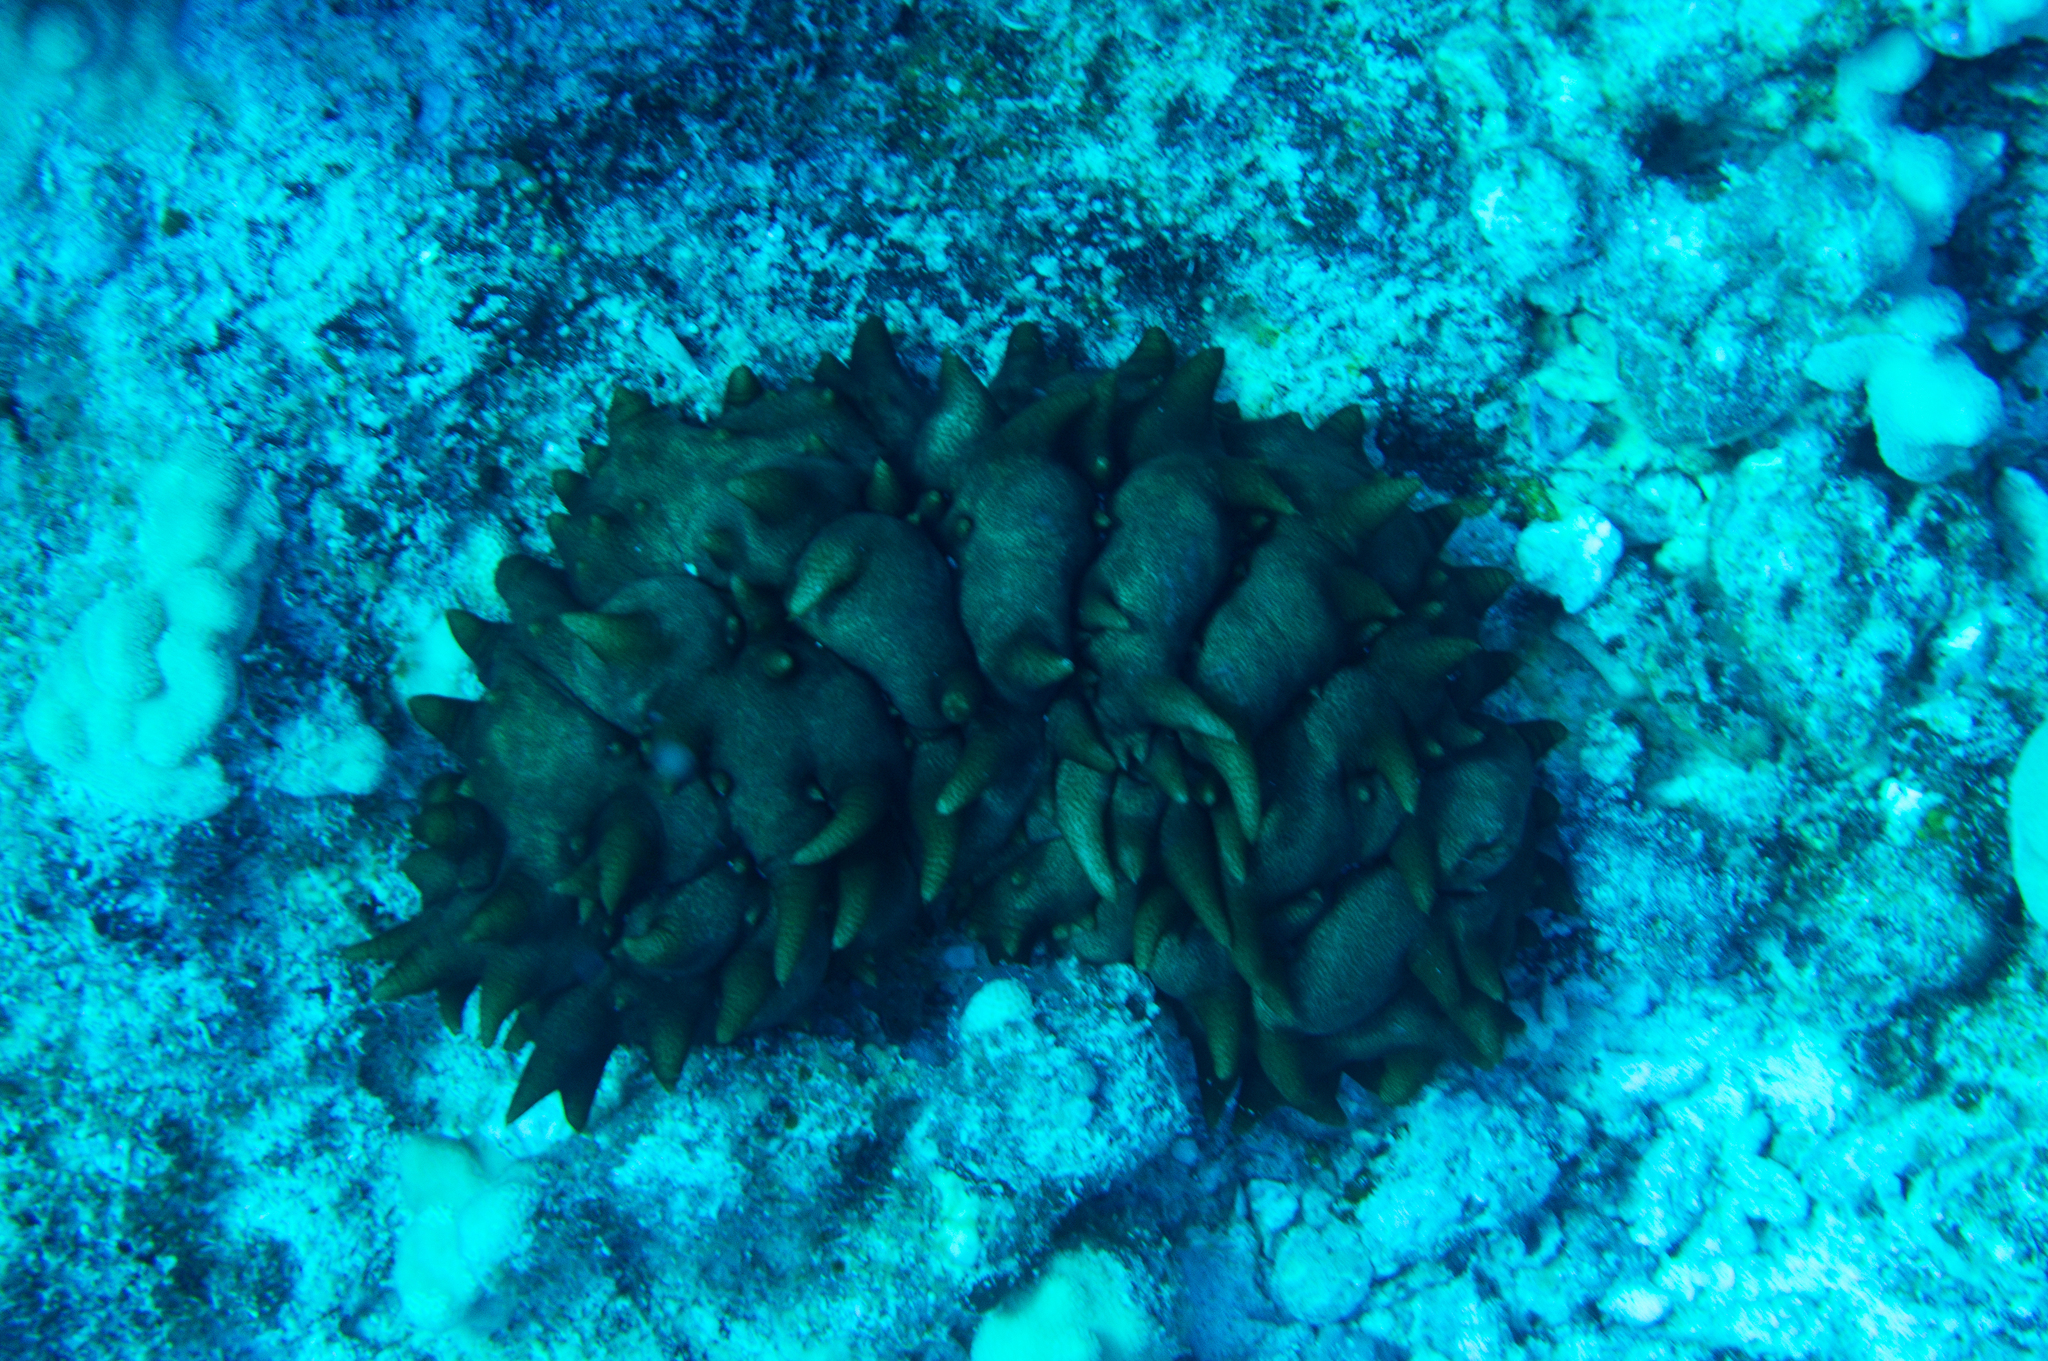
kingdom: Animalia
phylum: Echinodermata
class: Holothuroidea
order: Synallactida
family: Stichopodidae
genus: Stichopus
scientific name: Stichopus pseudohorrens
